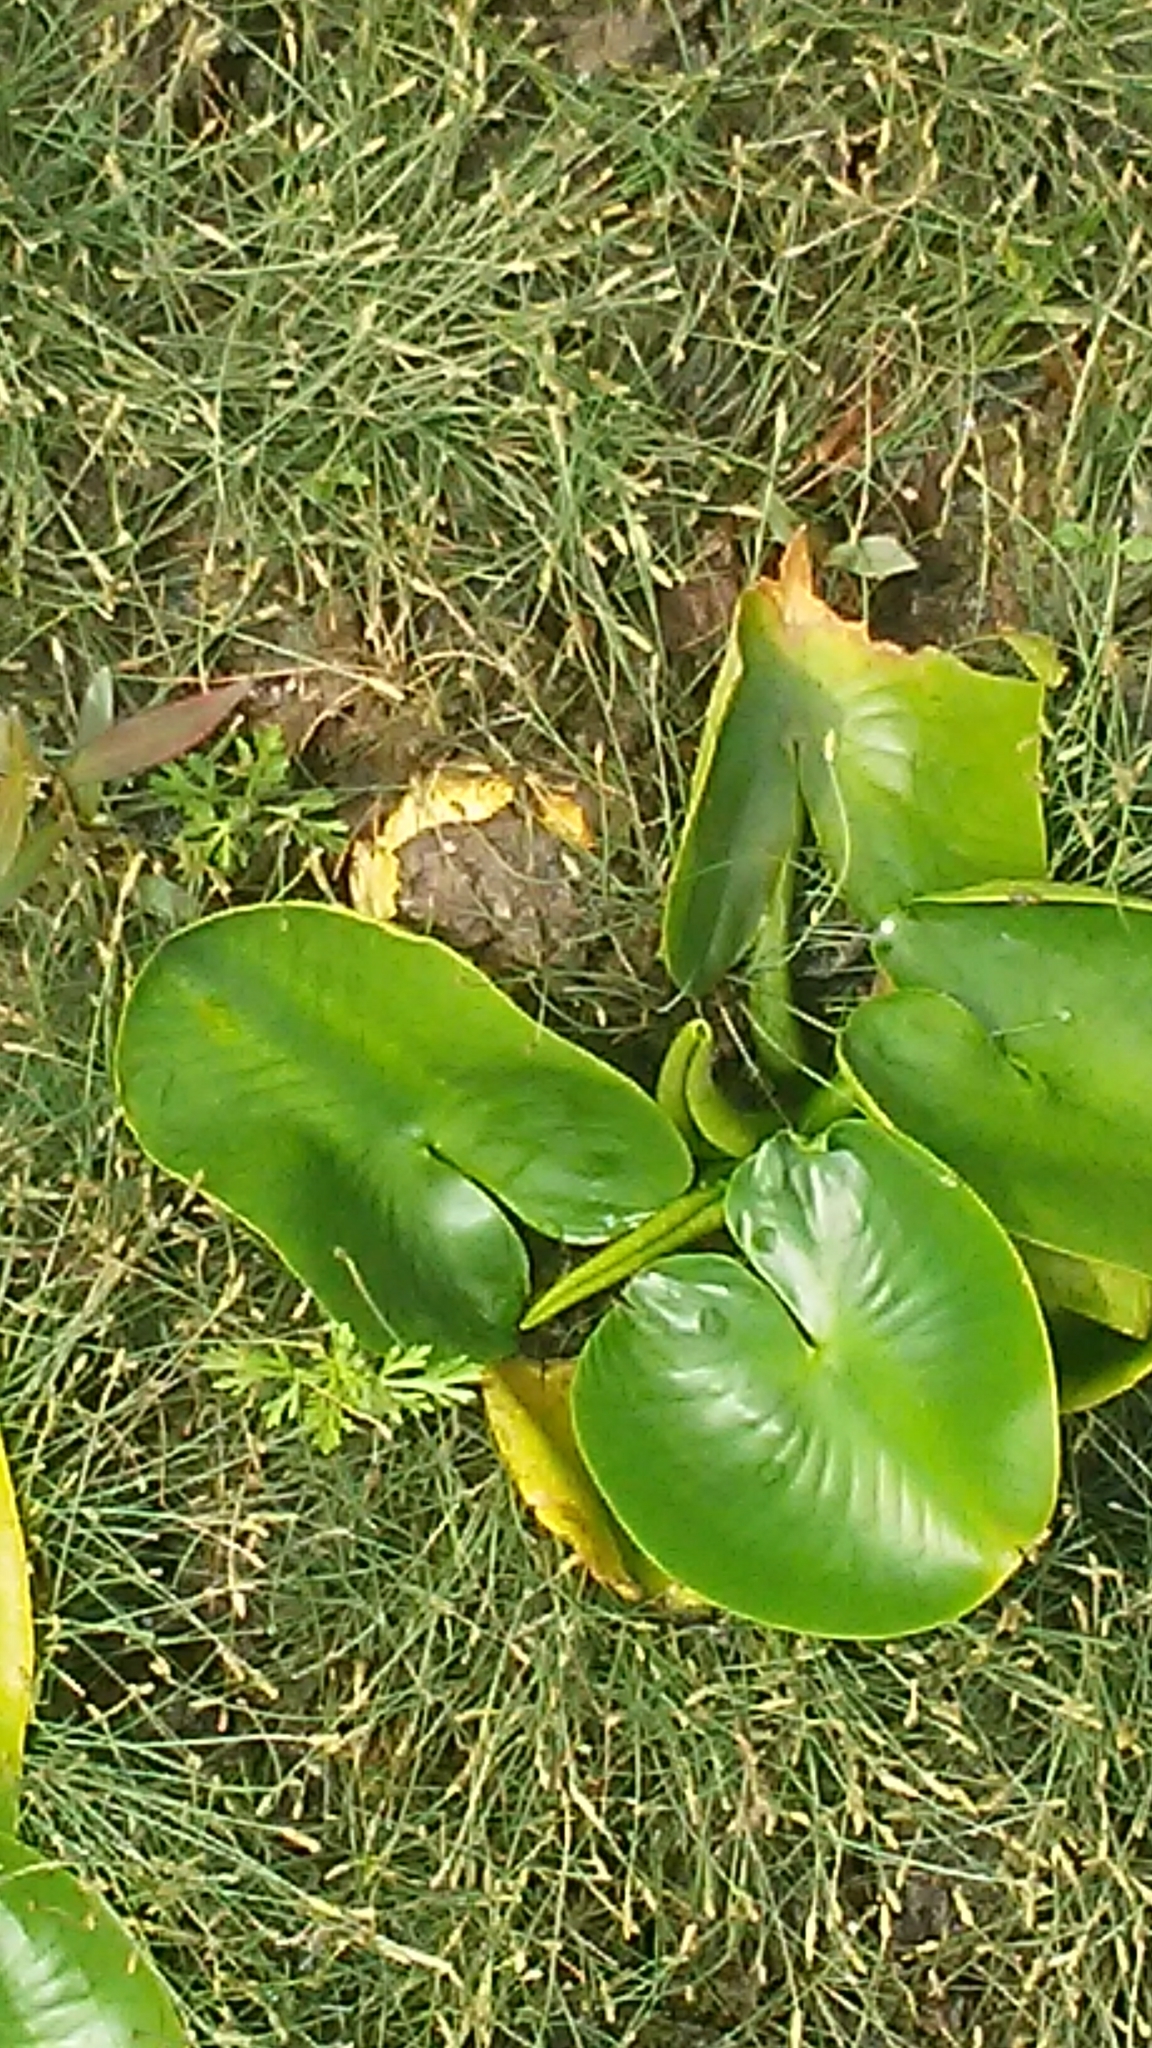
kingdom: Plantae
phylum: Tracheophyta
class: Magnoliopsida
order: Nymphaeales
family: Nymphaeaceae
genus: Nuphar
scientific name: Nuphar advena
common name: Spatter-dock
